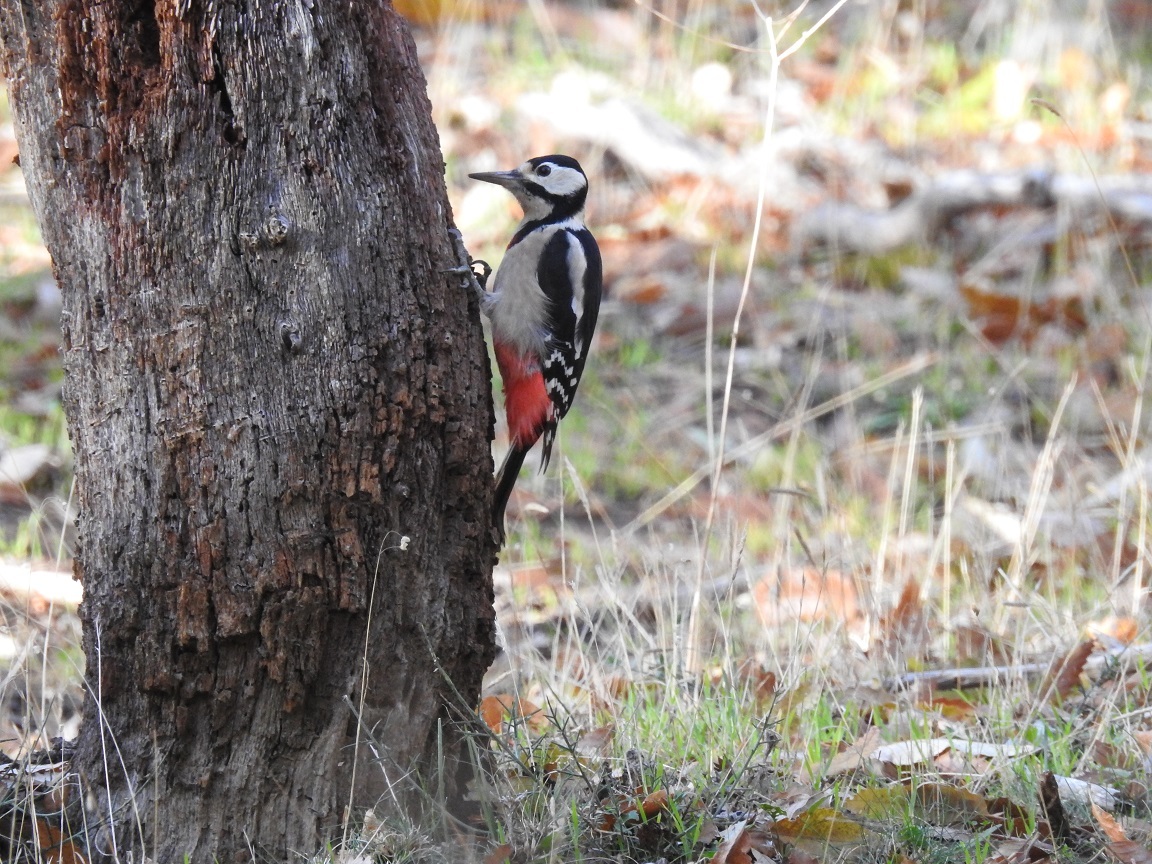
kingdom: Animalia
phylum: Chordata
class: Aves
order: Piciformes
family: Picidae
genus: Dendrocopos
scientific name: Dendrocopos major
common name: Great spotted woodpecker
